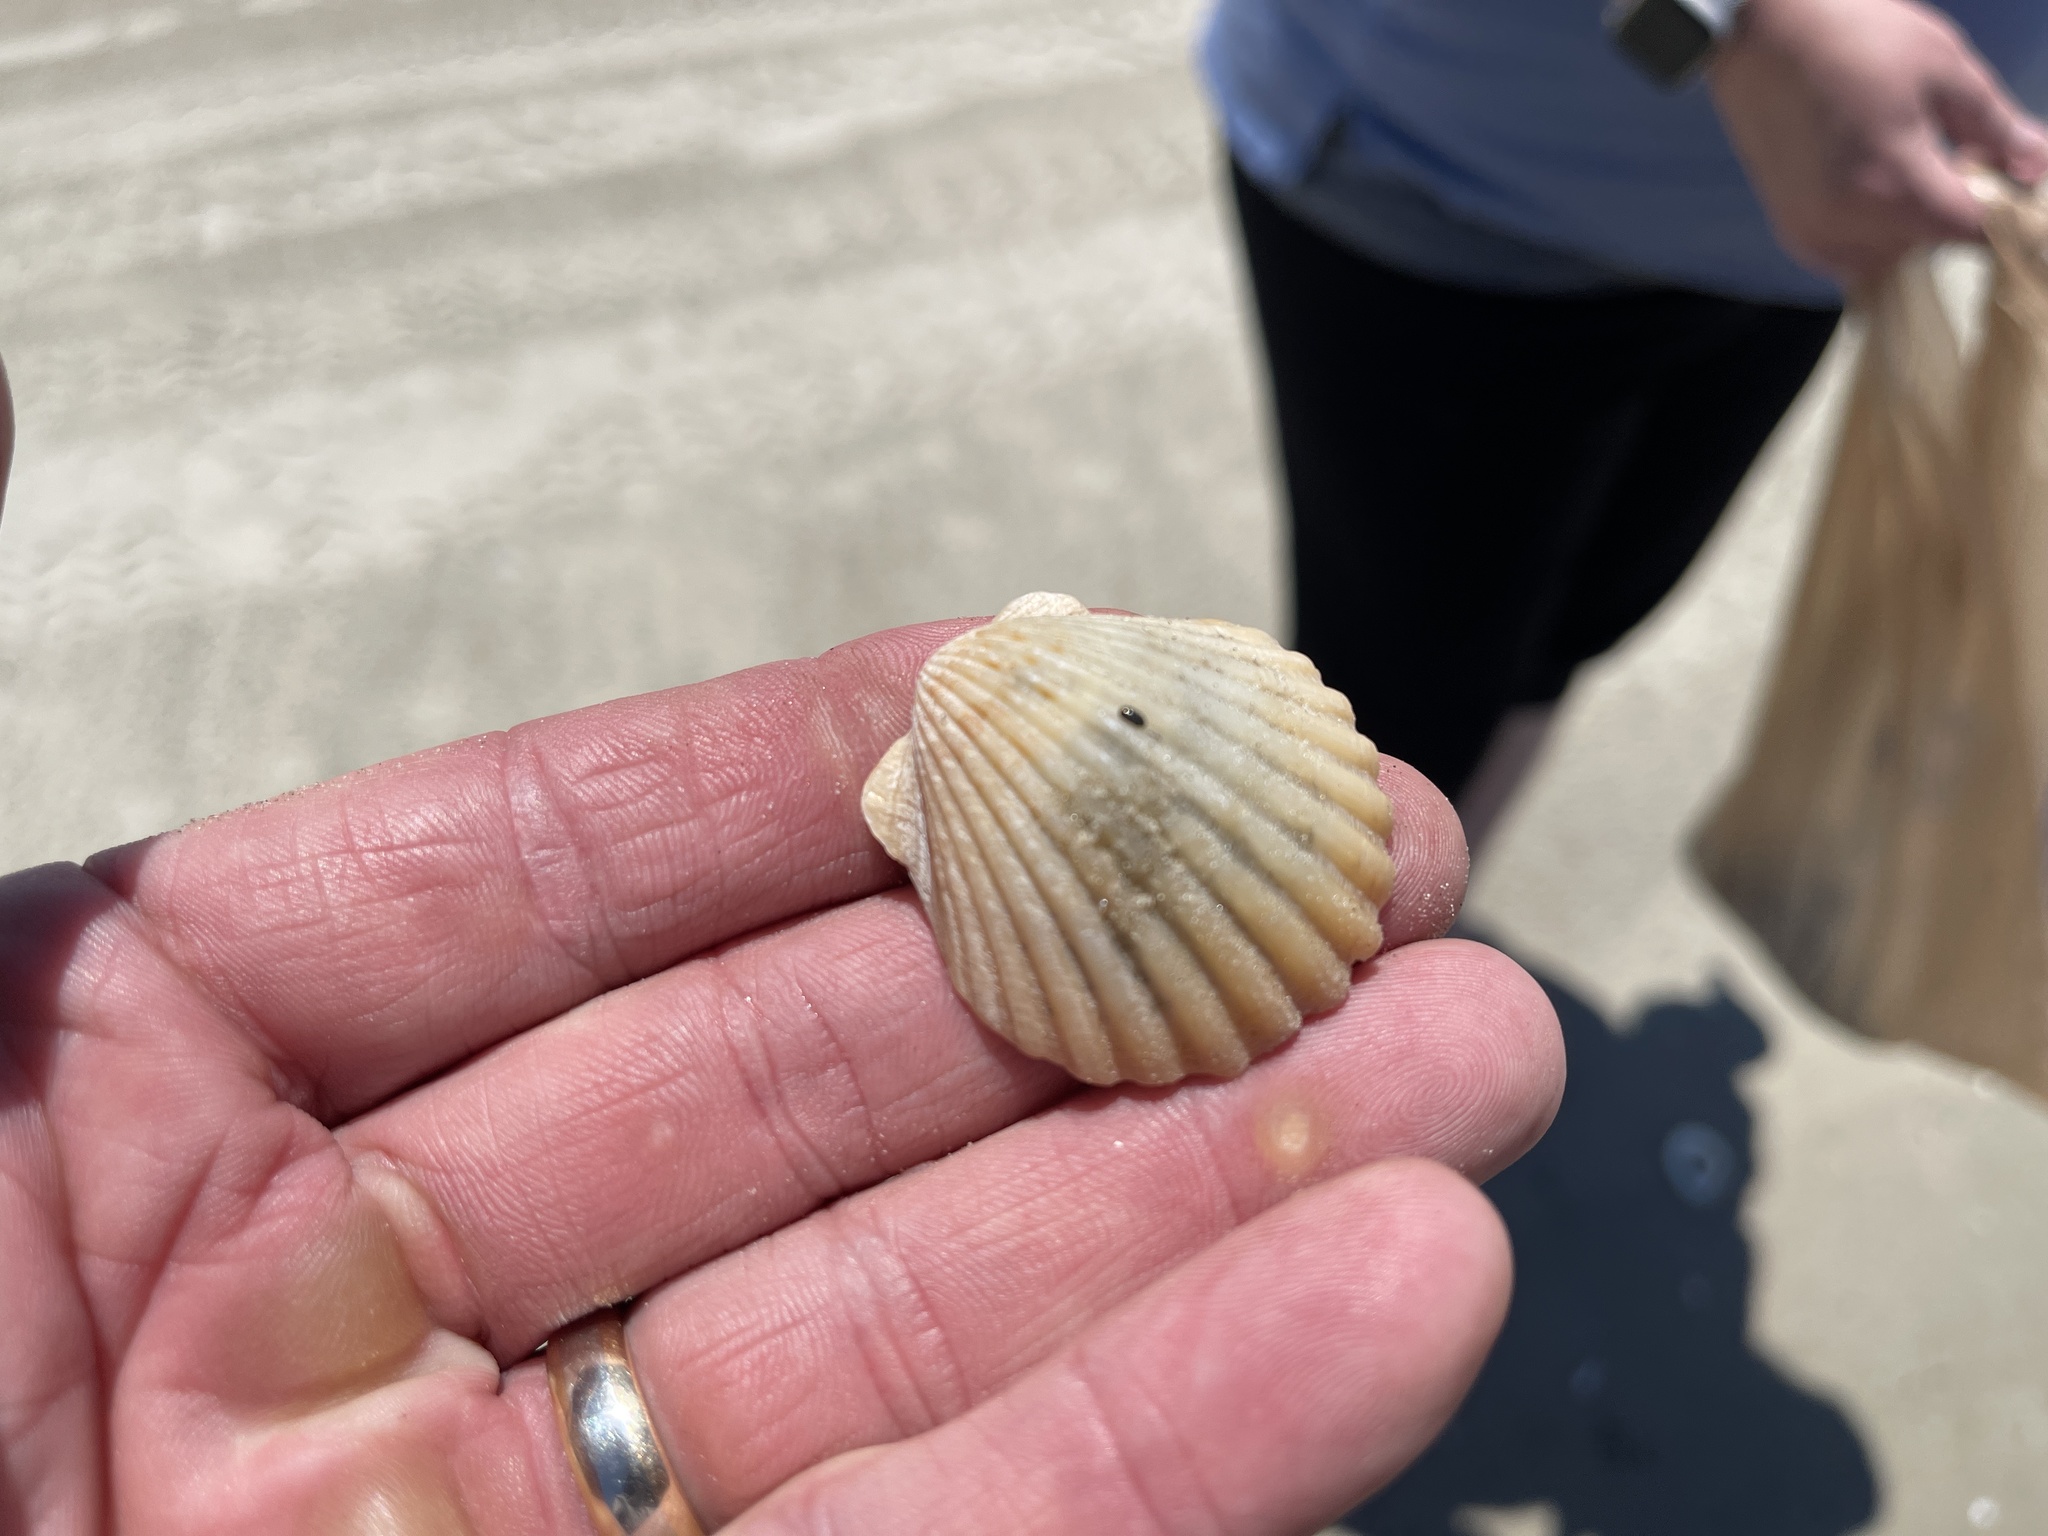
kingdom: Animalia
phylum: Mollusca
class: Bivalvia
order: Pectinida
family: Pectinidae
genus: Argopecten
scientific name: Argopecten irradians
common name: Atlantic bay scallop
